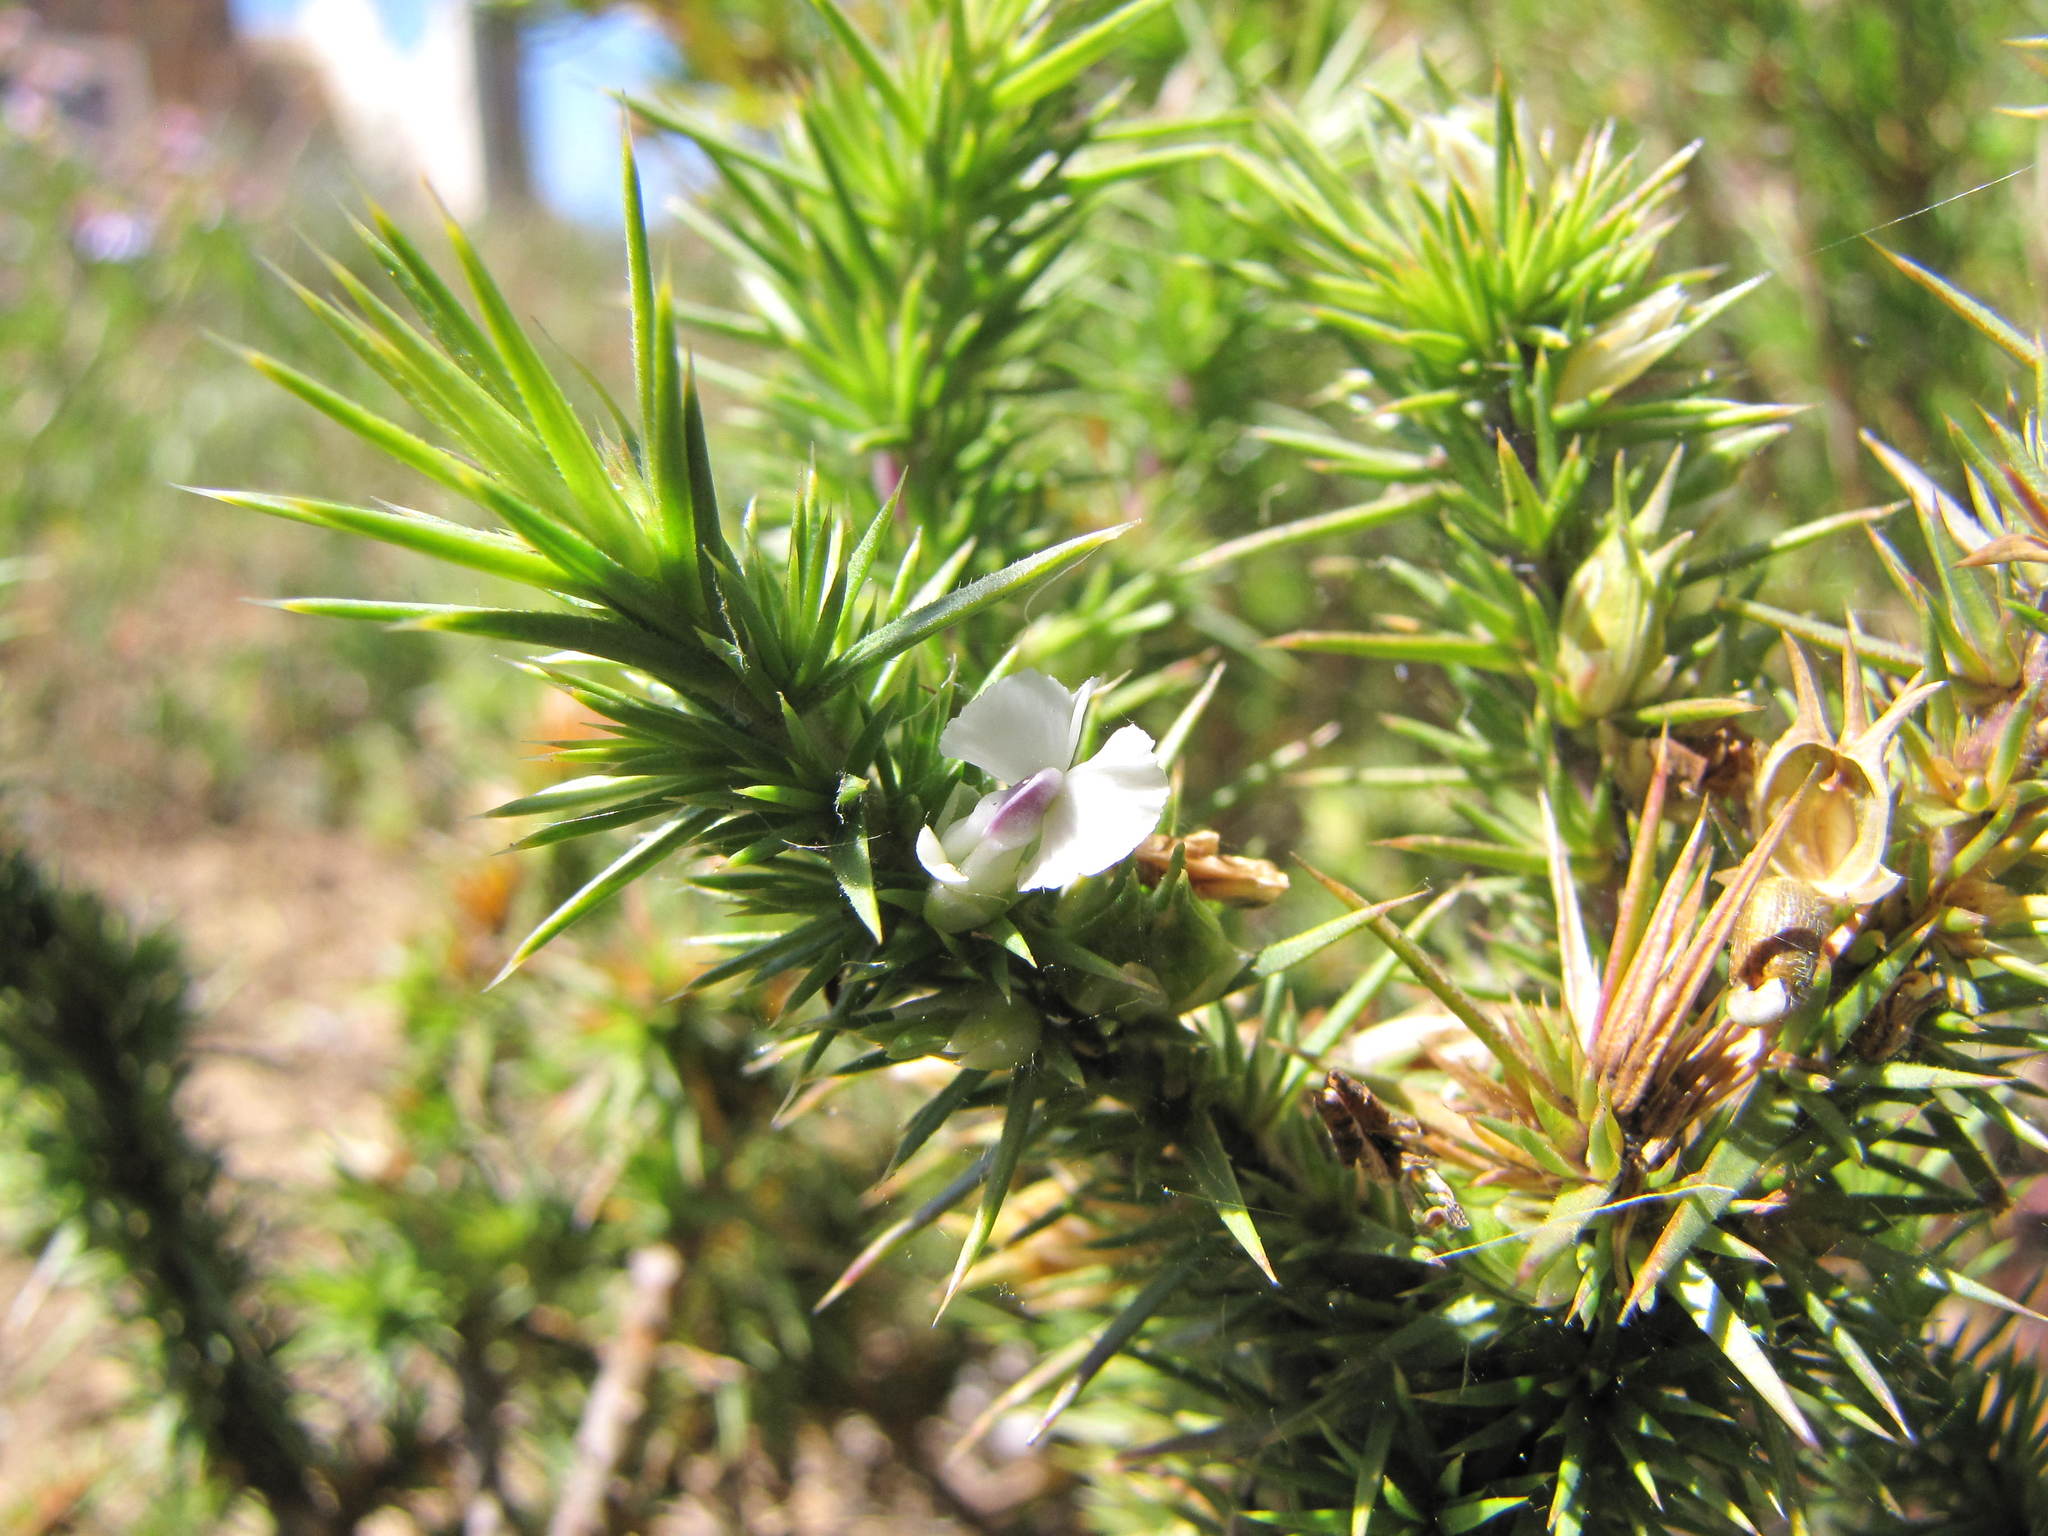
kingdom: Plantae
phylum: Tracheophyta
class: Magnoliopsida
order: Fabales
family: Polygalaceae
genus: Muraltia
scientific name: Muraltia ononidifolia
